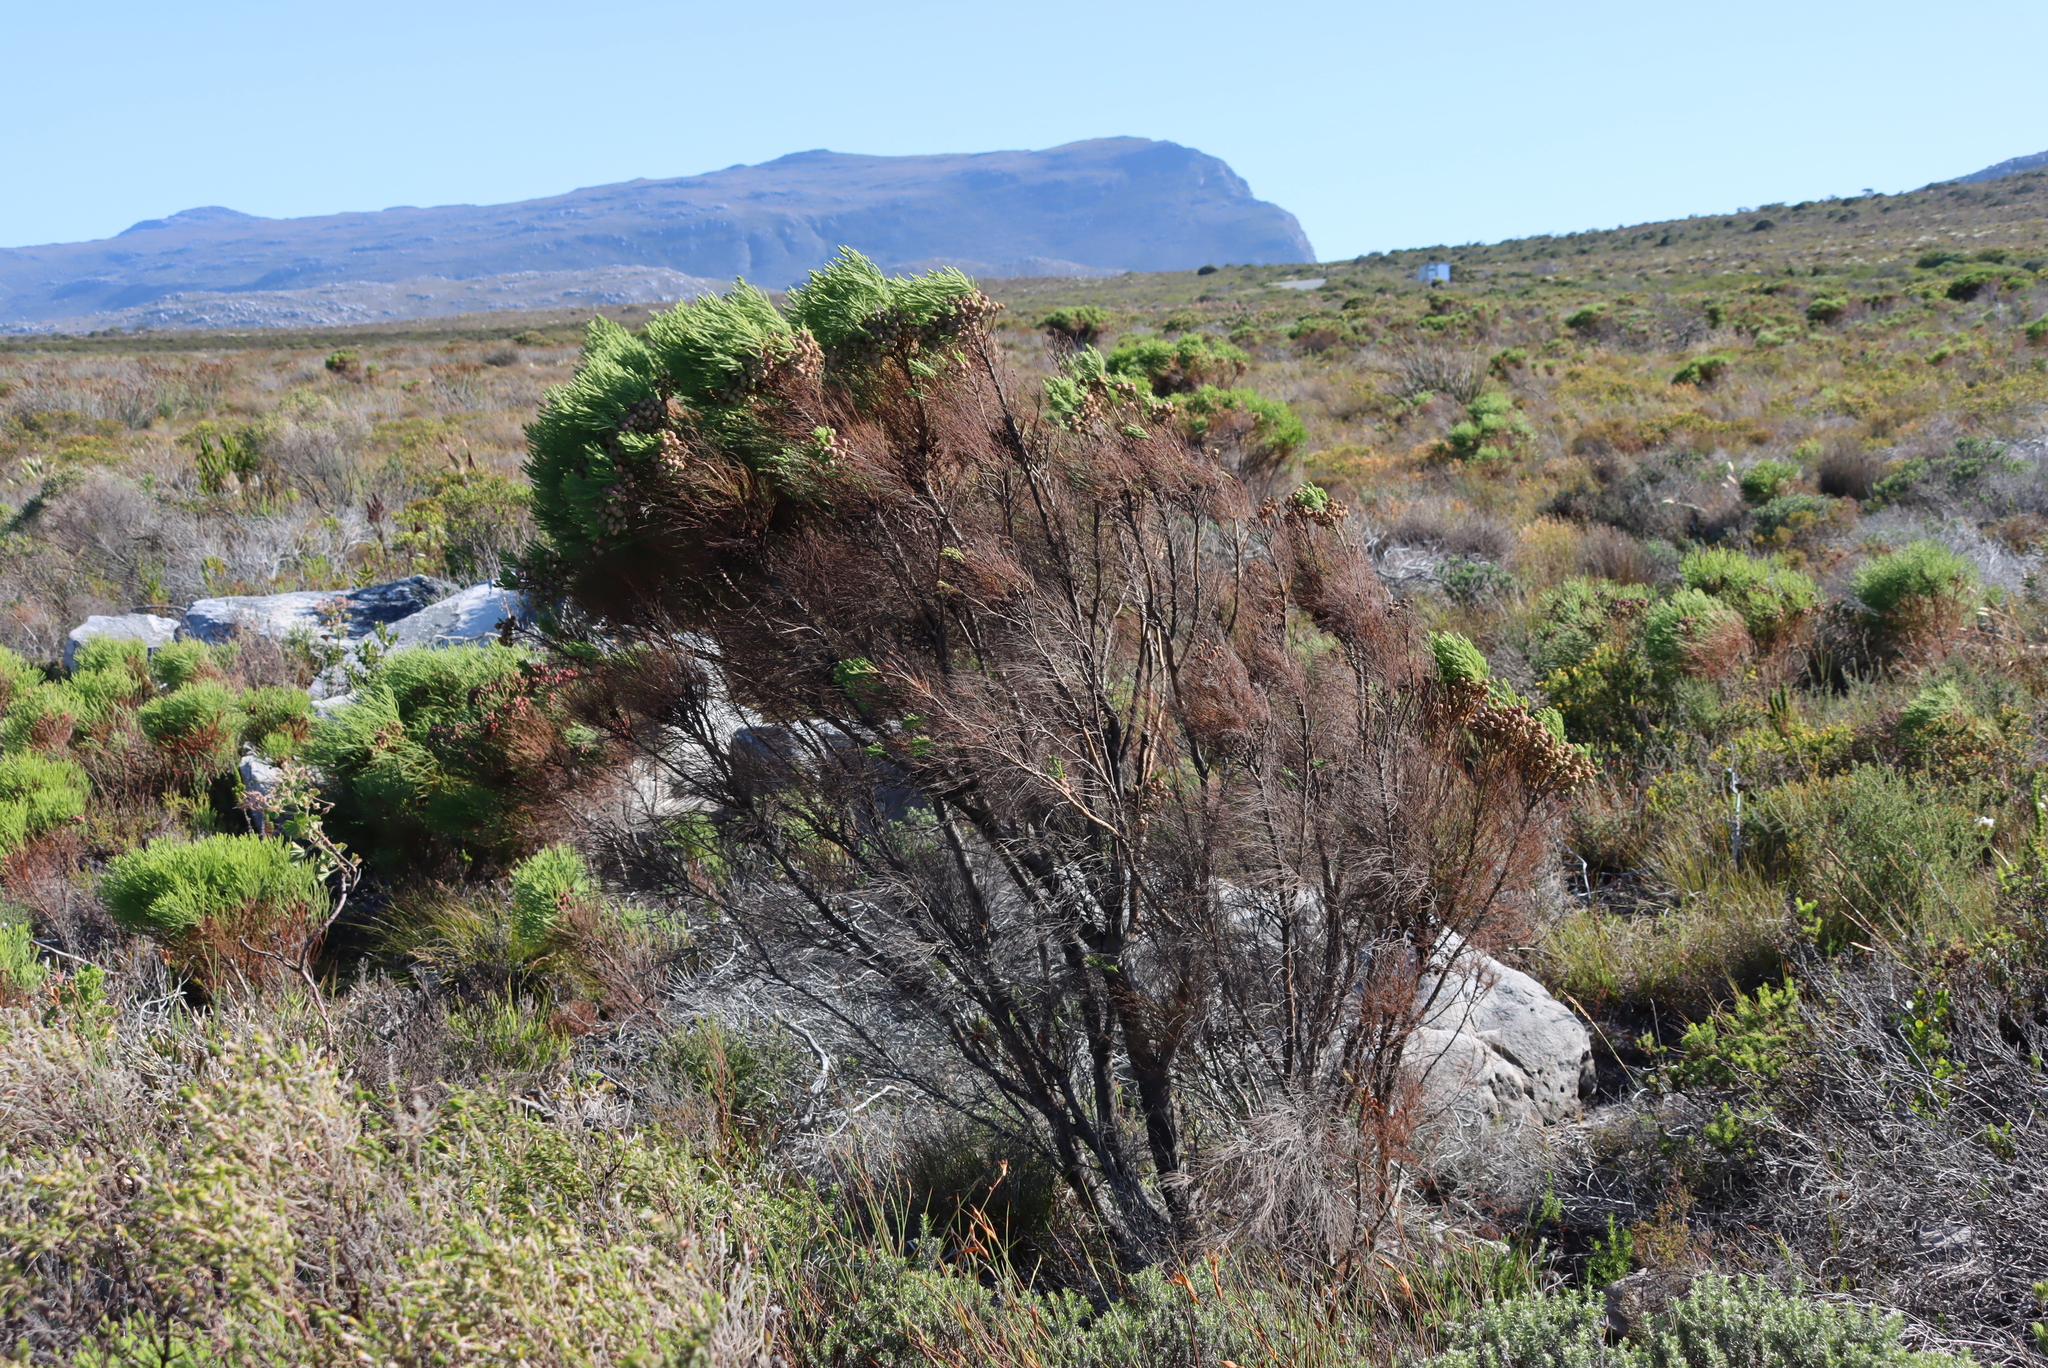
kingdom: Plantae
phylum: Tracheophyta
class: Magnoliopsida
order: Bruniales
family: Bruniaceae
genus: Berzelia
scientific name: Berzelia lanuginosa
